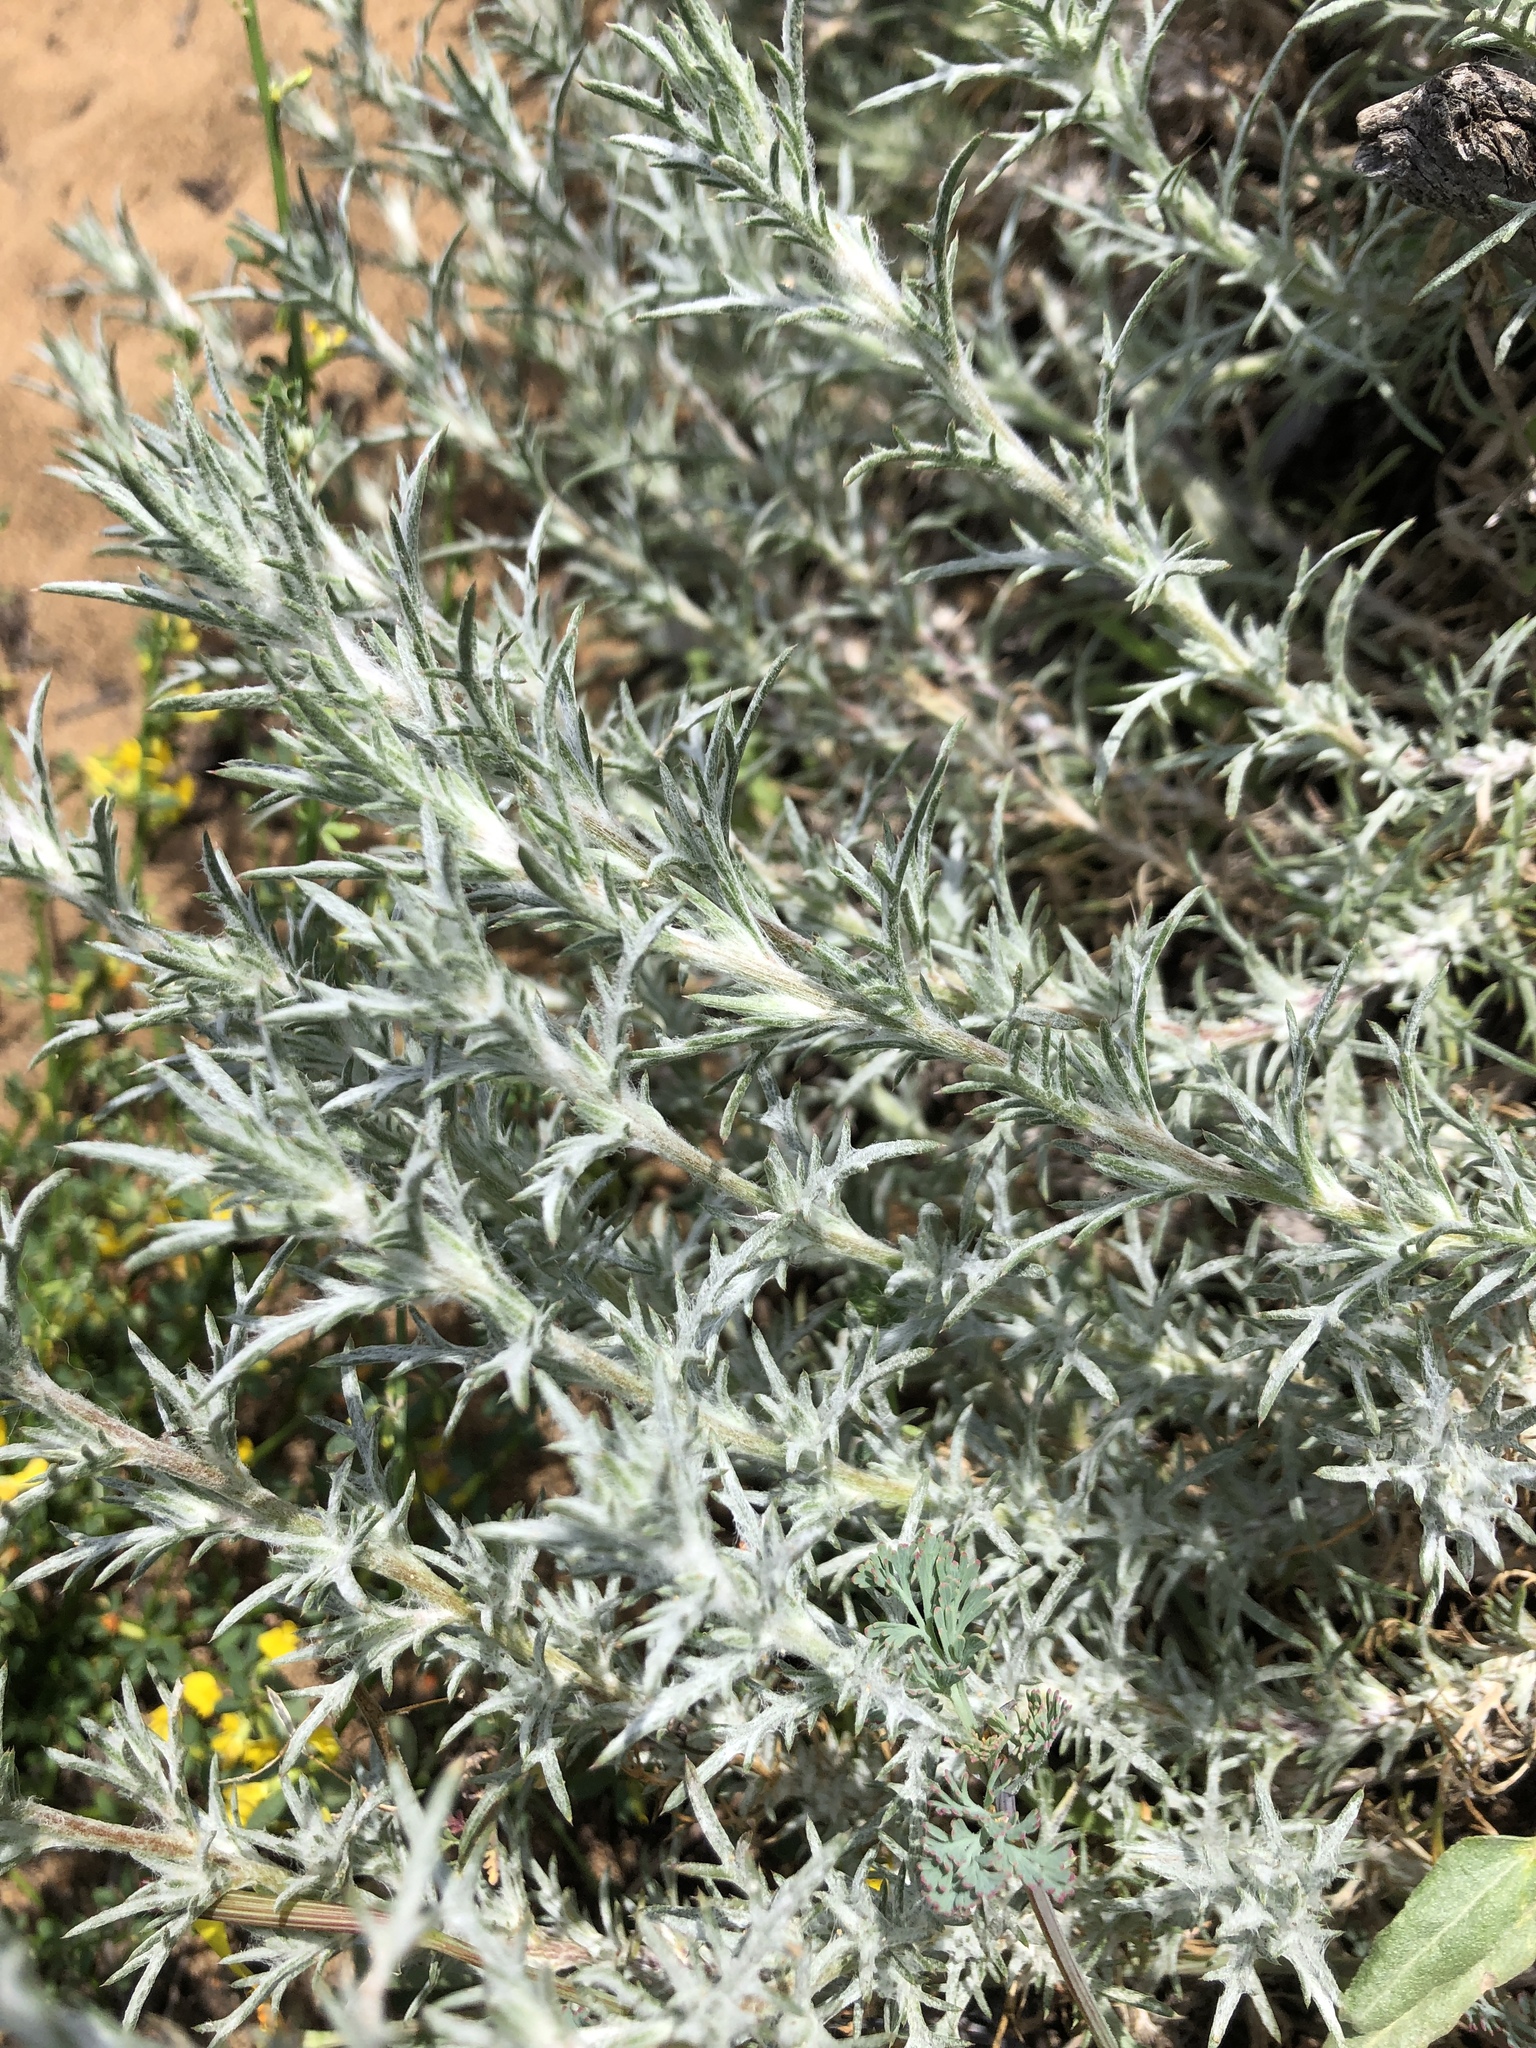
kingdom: Plantae
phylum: Tracheophyta
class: Magnoliopsida
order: Ericales
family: Polemoniaceae
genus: Eriastrum
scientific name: Eriastrum densifolium
